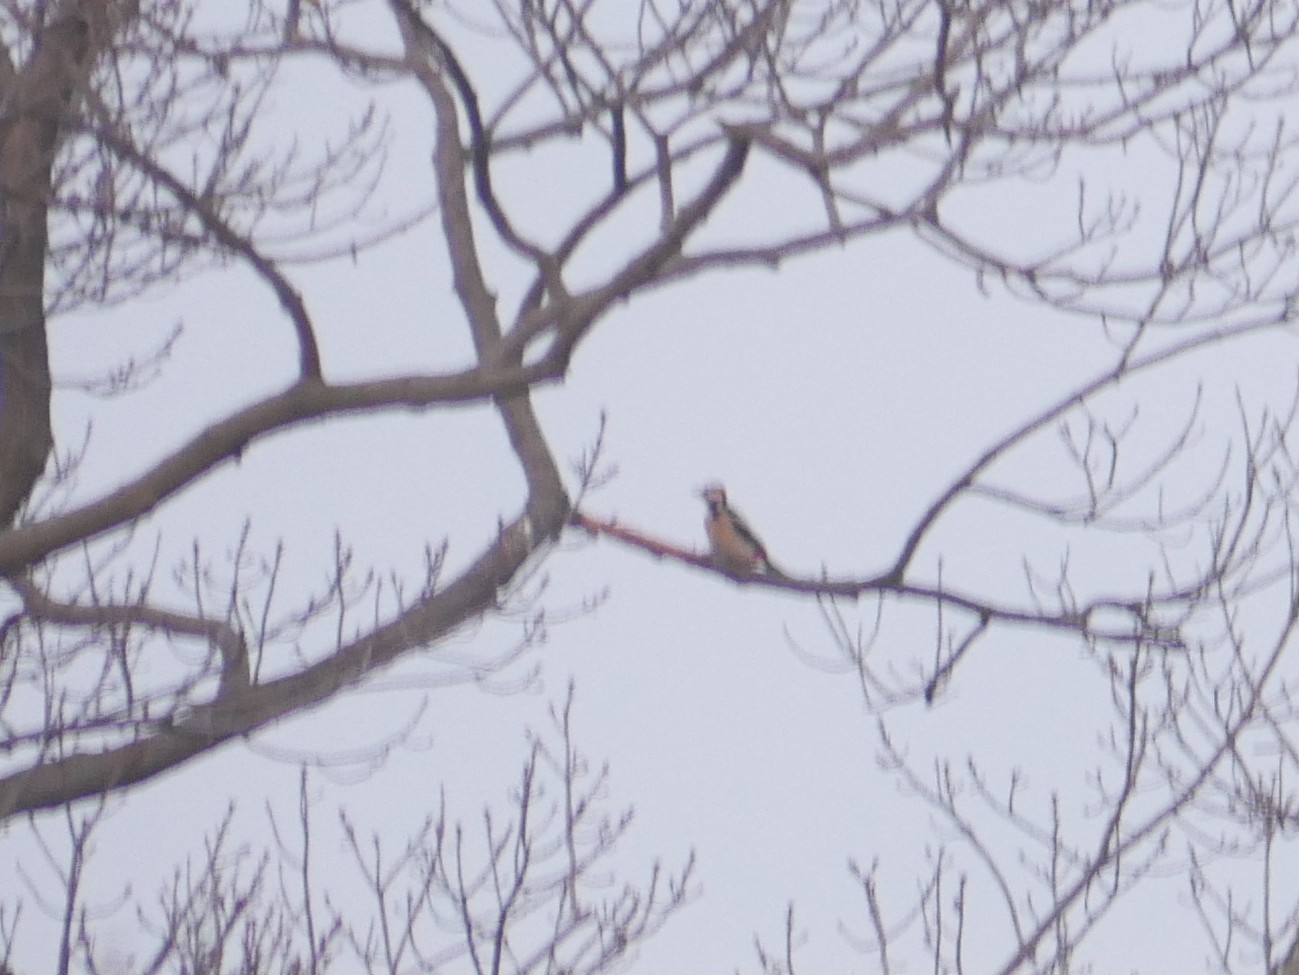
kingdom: Animalia
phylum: Chordata
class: Aves
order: Piciformes
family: Picidae
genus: Dendrocopos
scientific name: Dendrocopos major
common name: Great spotted woodpecker
